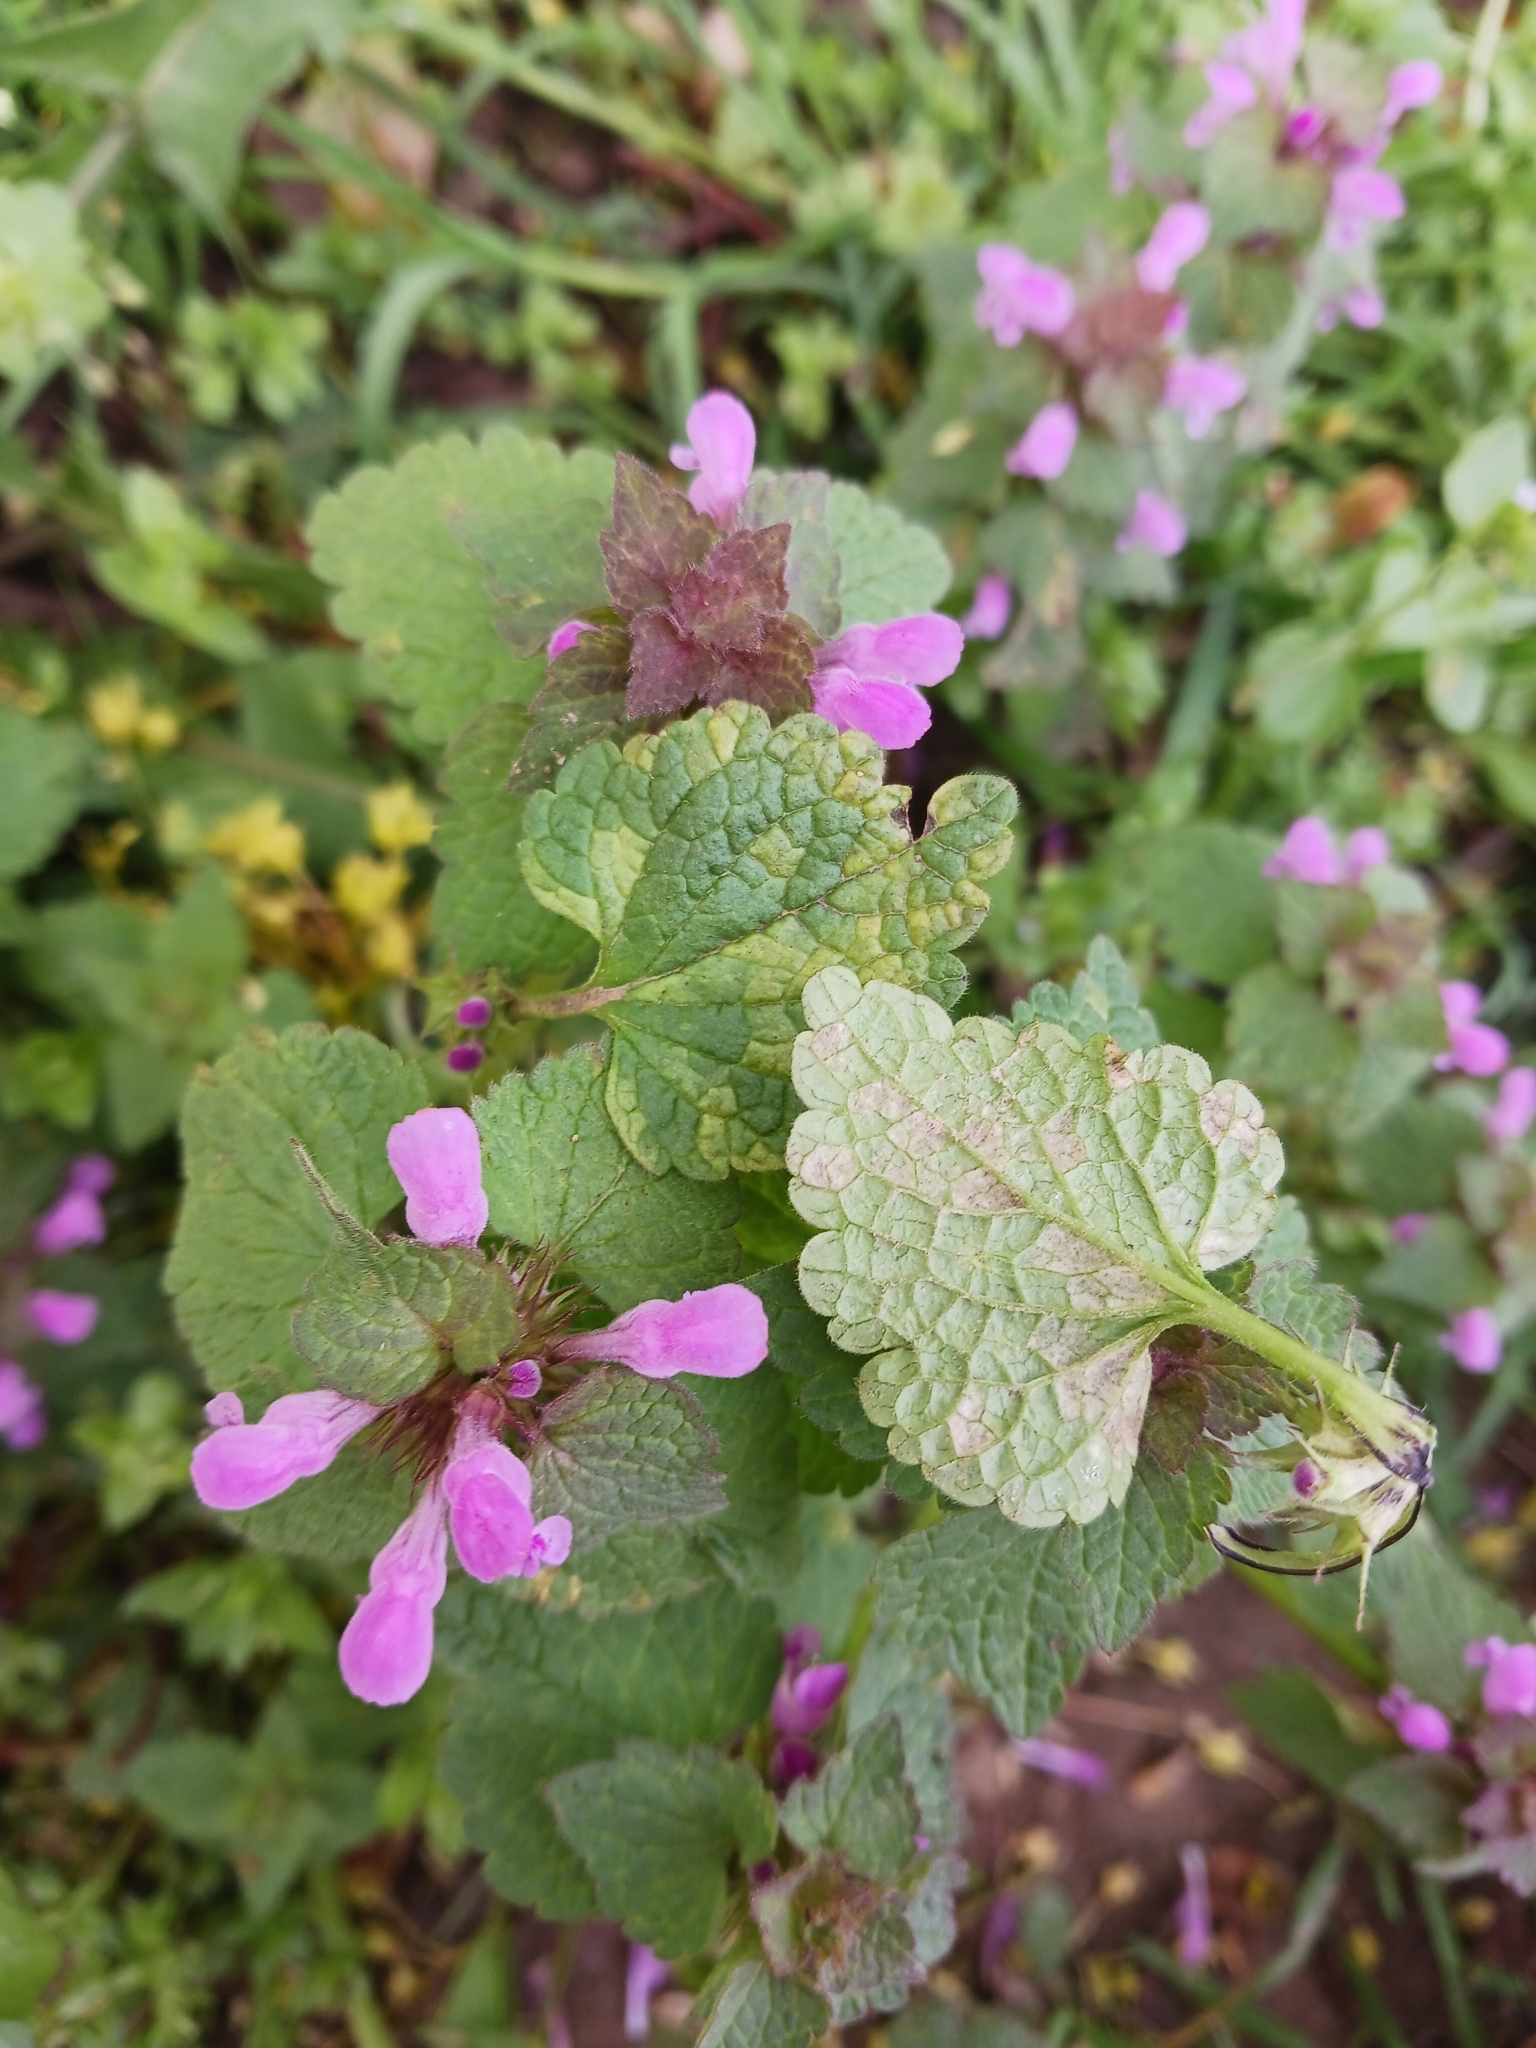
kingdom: Chromista
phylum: Oomycota
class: Peronosporea
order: Peronosporales
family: Peronosporaceae
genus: Peronospora
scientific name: Peronospora lamii
